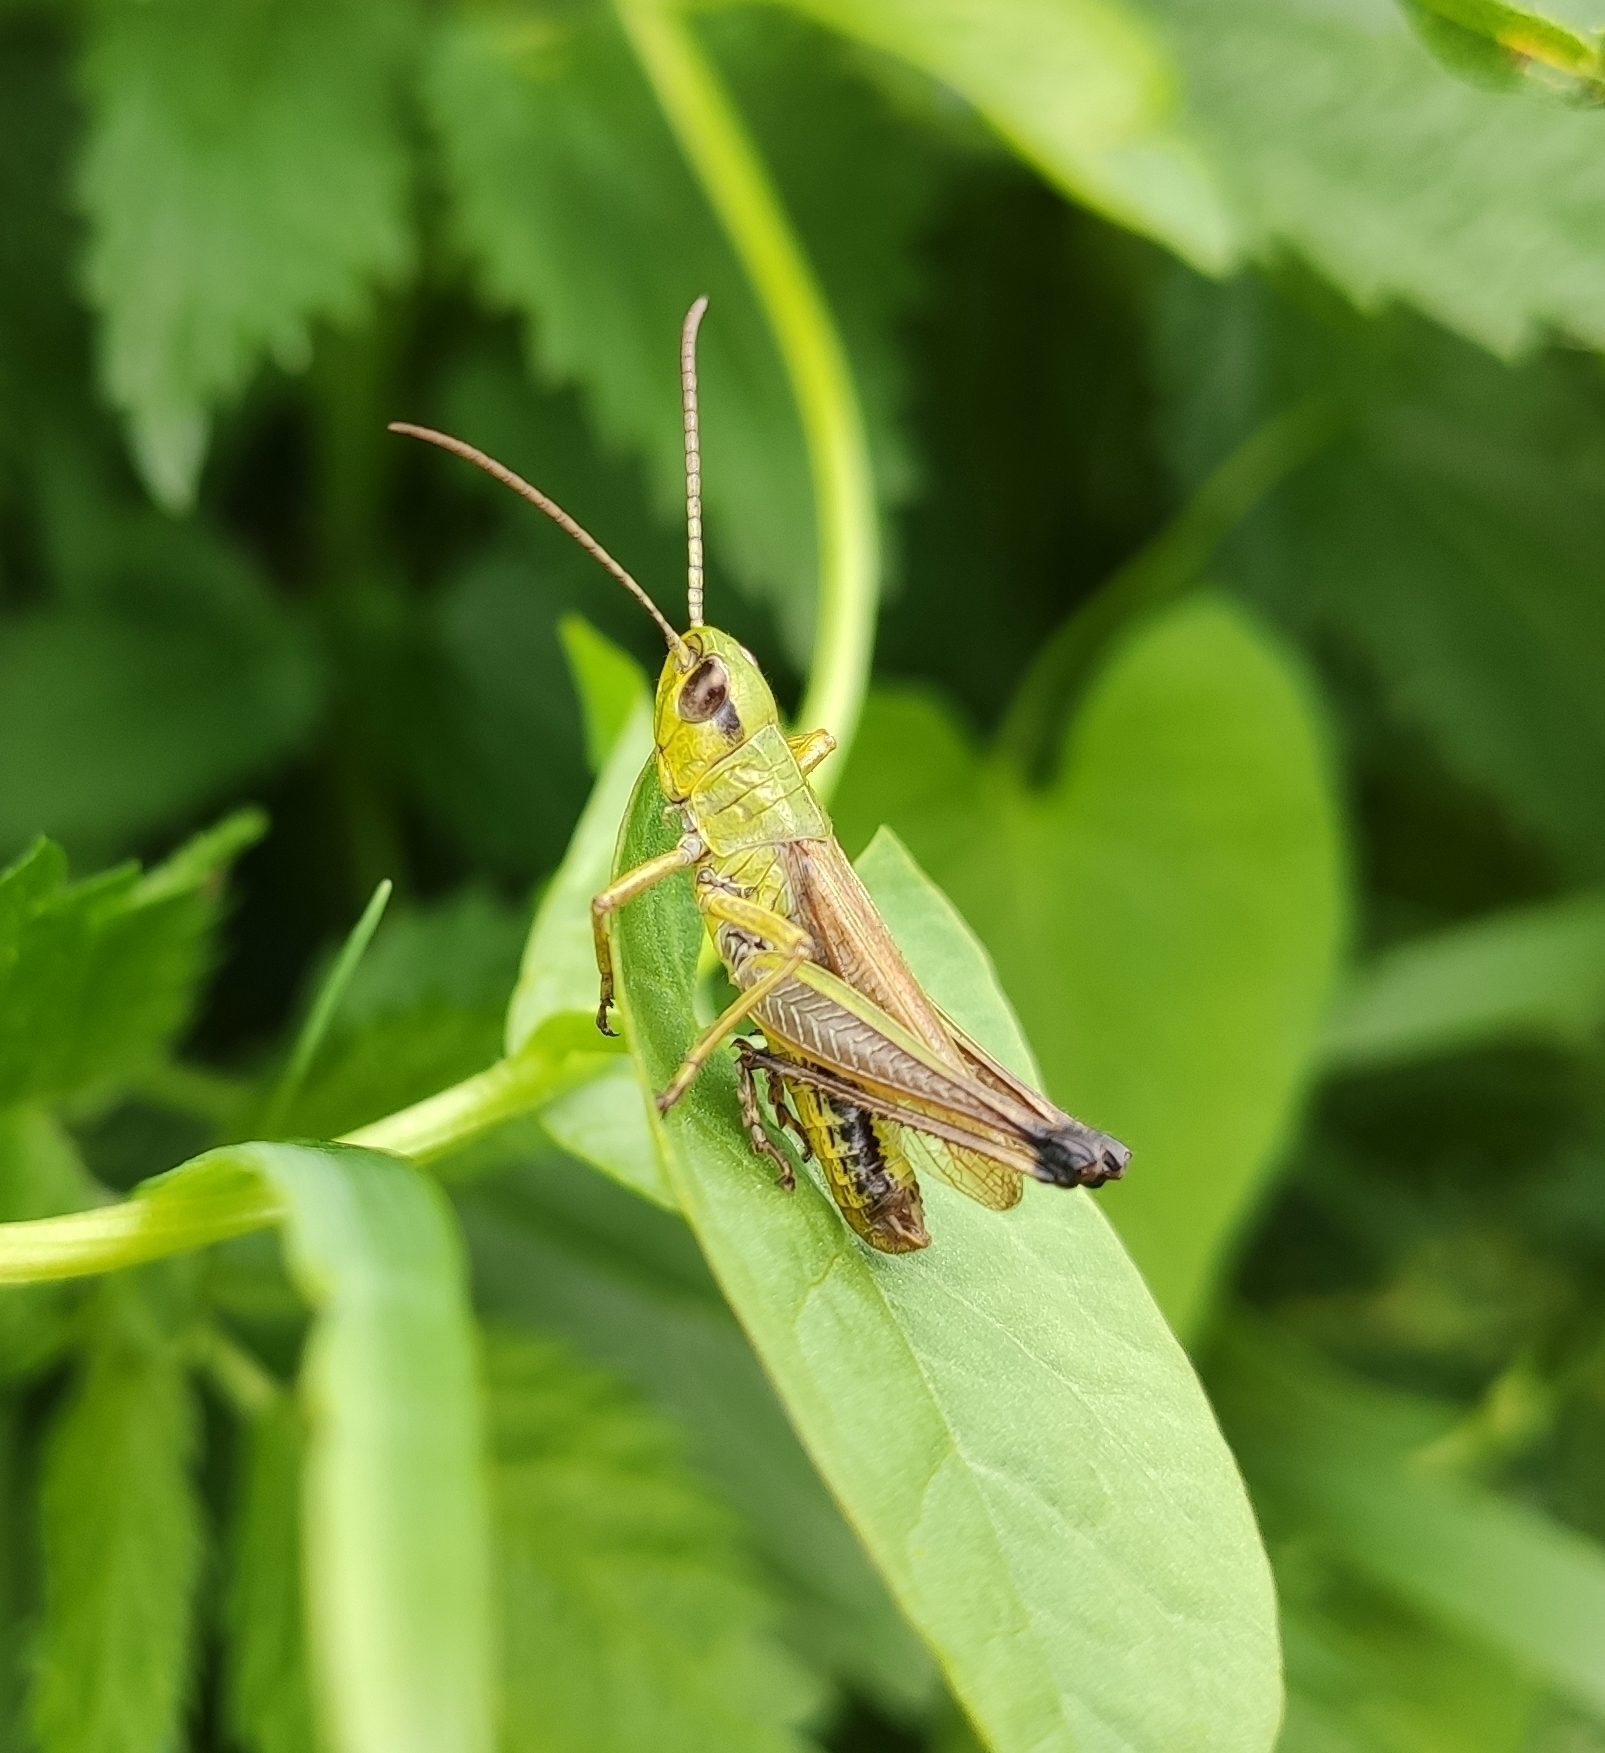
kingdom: Animalia
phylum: Arthropoda
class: Insecta
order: Orthoptera
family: Acrididae
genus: Pseudochorthippus
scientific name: Pseudochorthippus parallelus
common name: Meadow grasshopper
